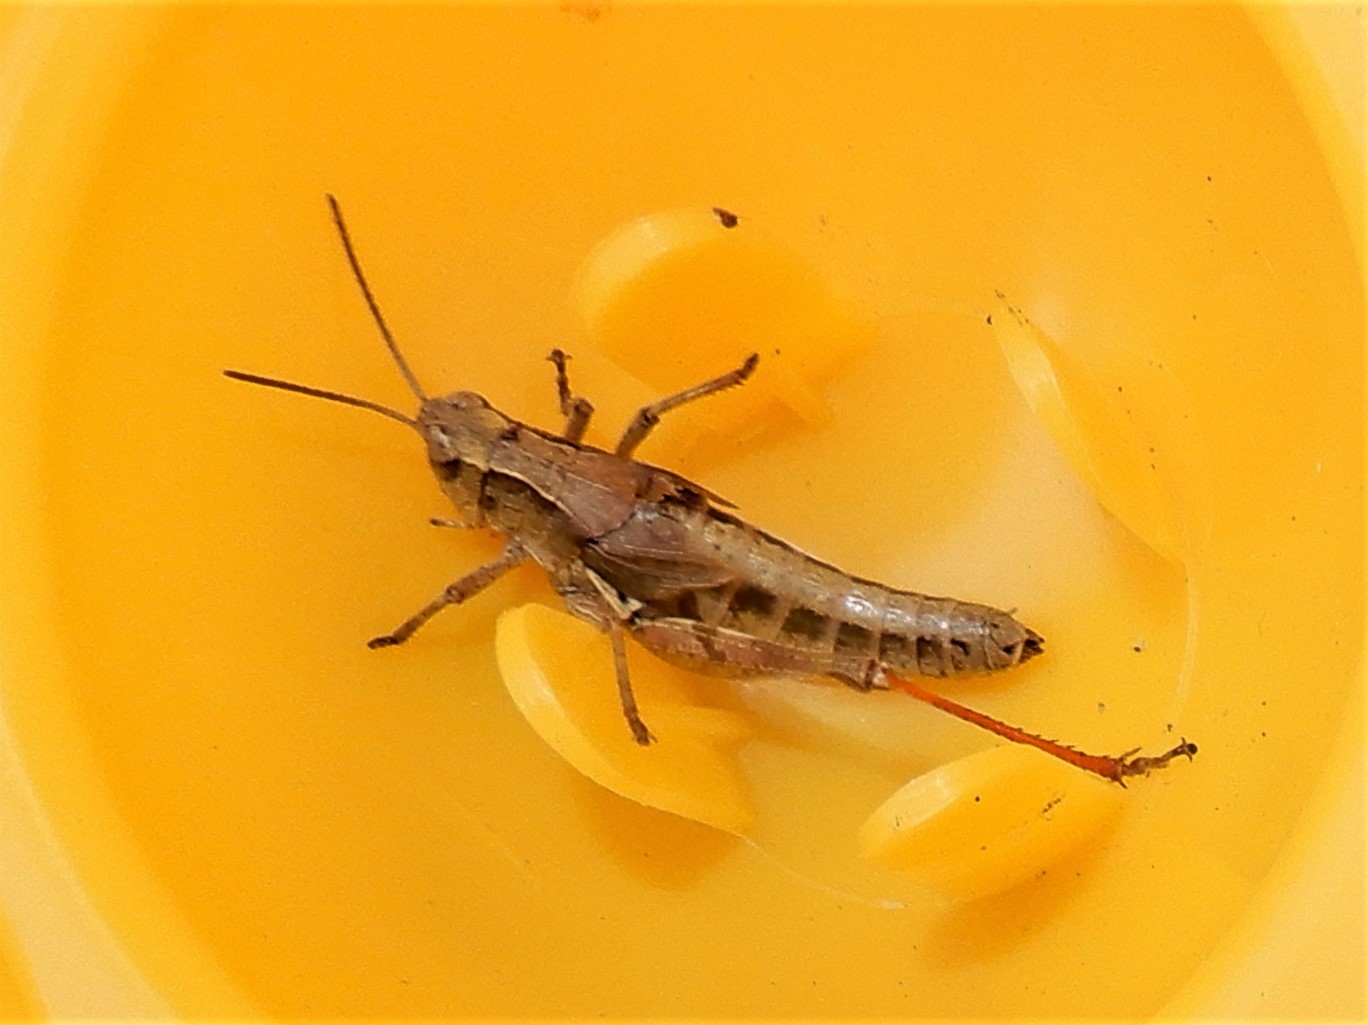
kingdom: Animalia
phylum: Arthropoda
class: Insecta
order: Orthoptera
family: Acrididae
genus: Phaulacridium
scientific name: Phaulacridium marginale
